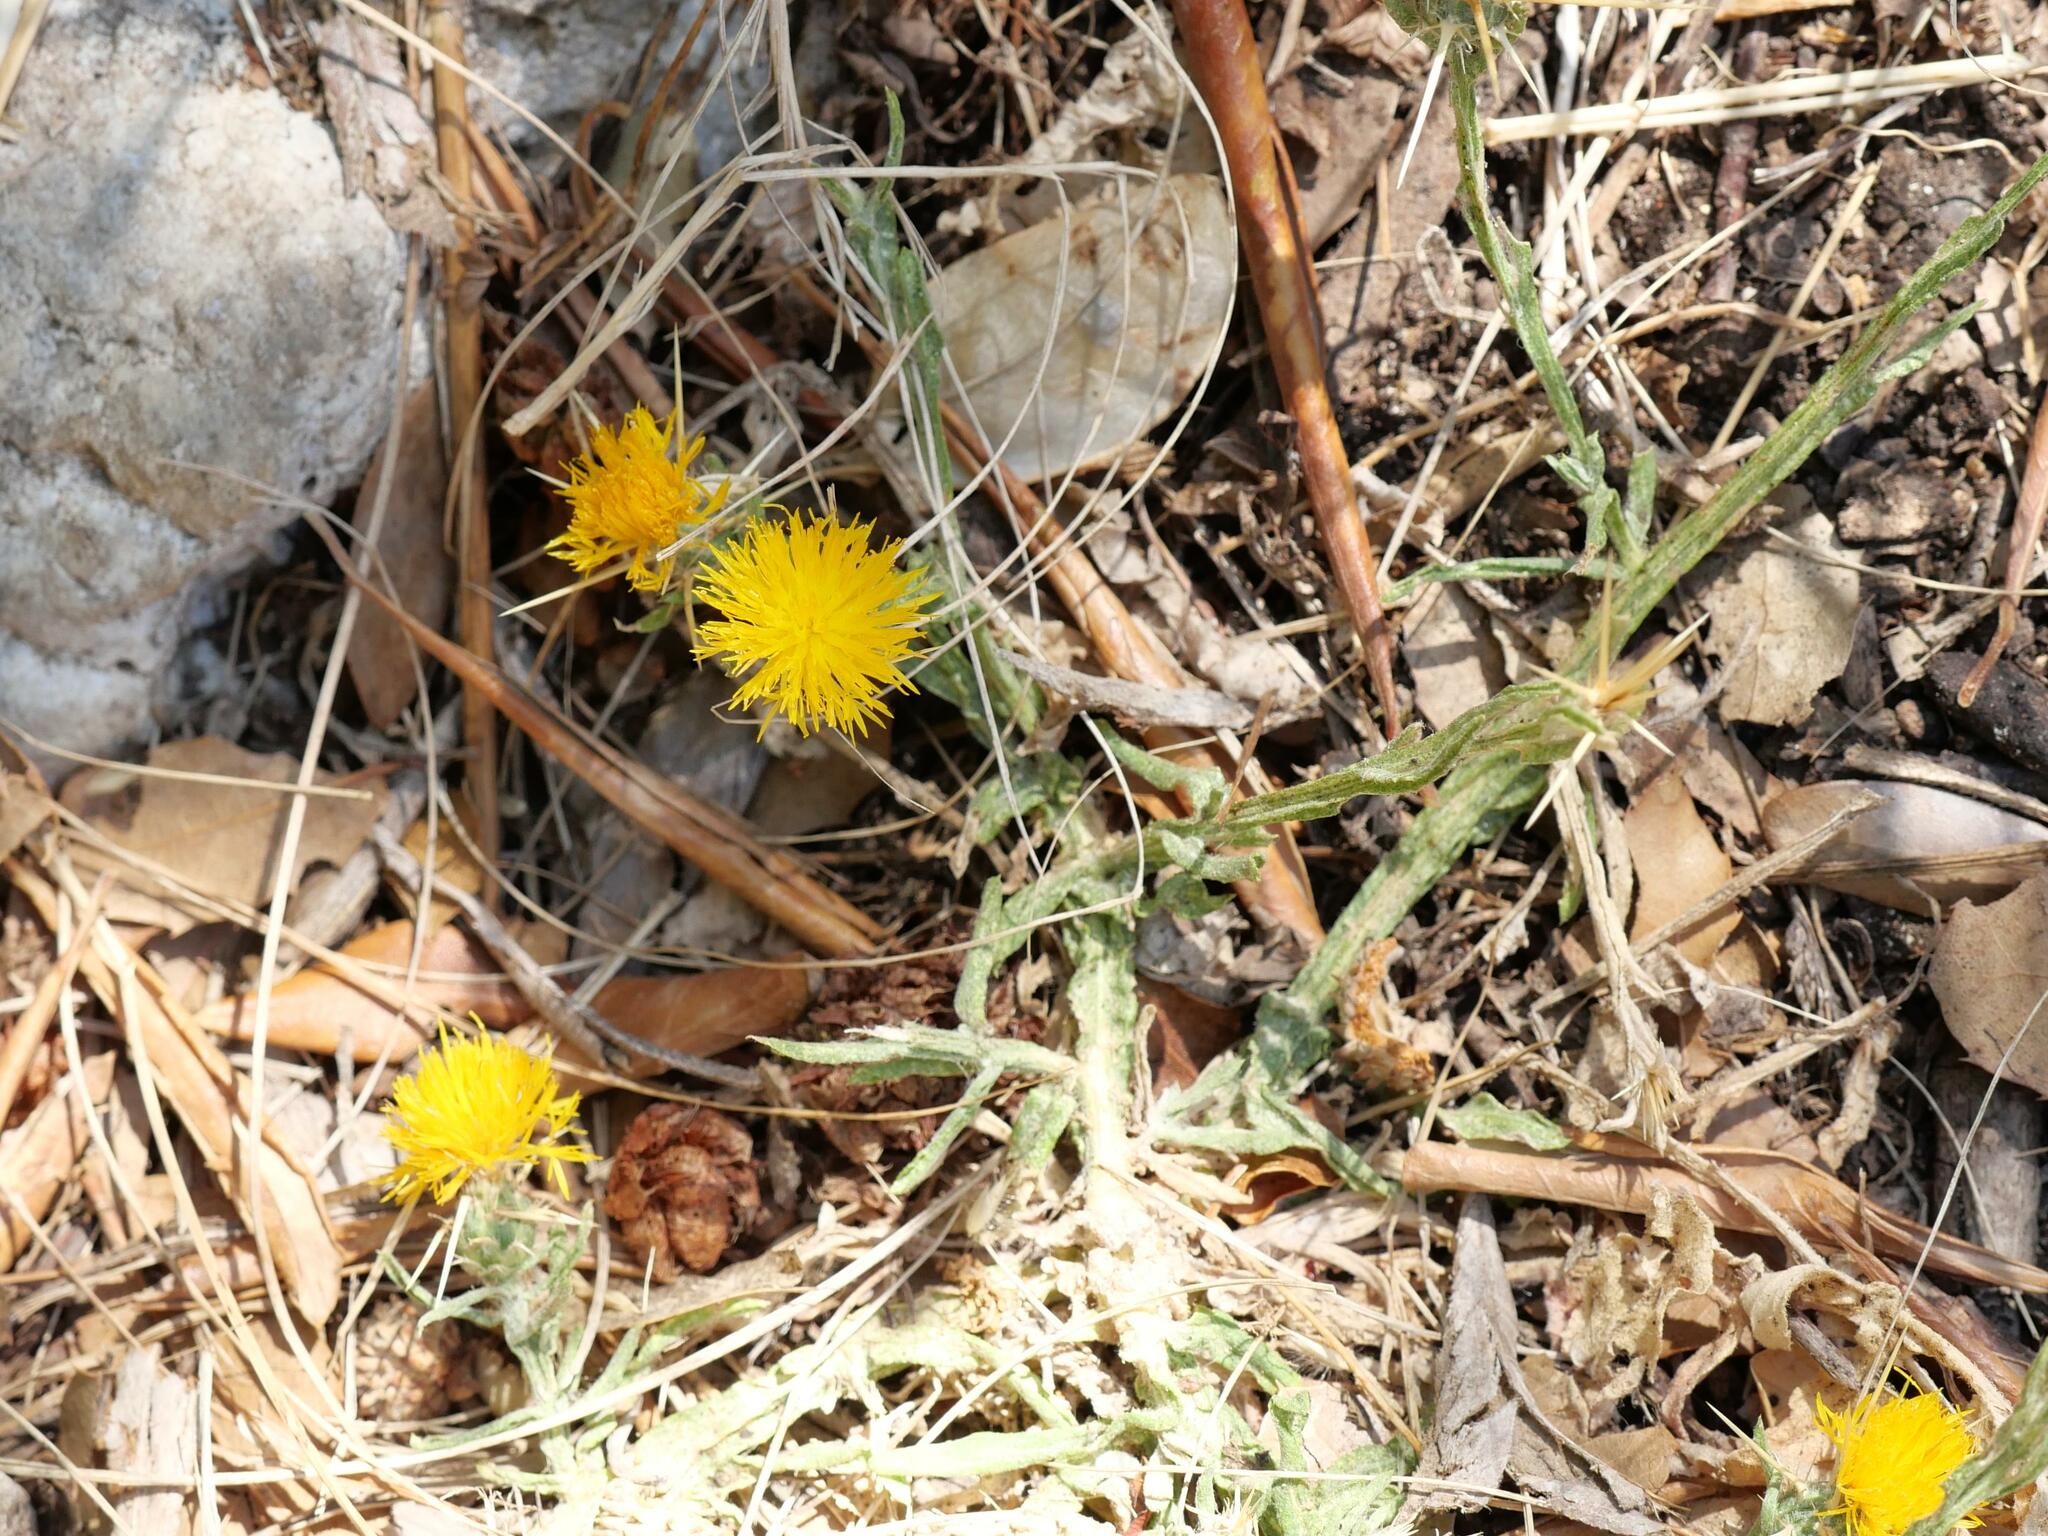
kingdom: Plantae
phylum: Tracheophyta
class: Magnoliopsida
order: Asterales
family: Asteraceae
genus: Centaurea
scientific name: Centaurea solstitialis
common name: Yellow star-thistle
